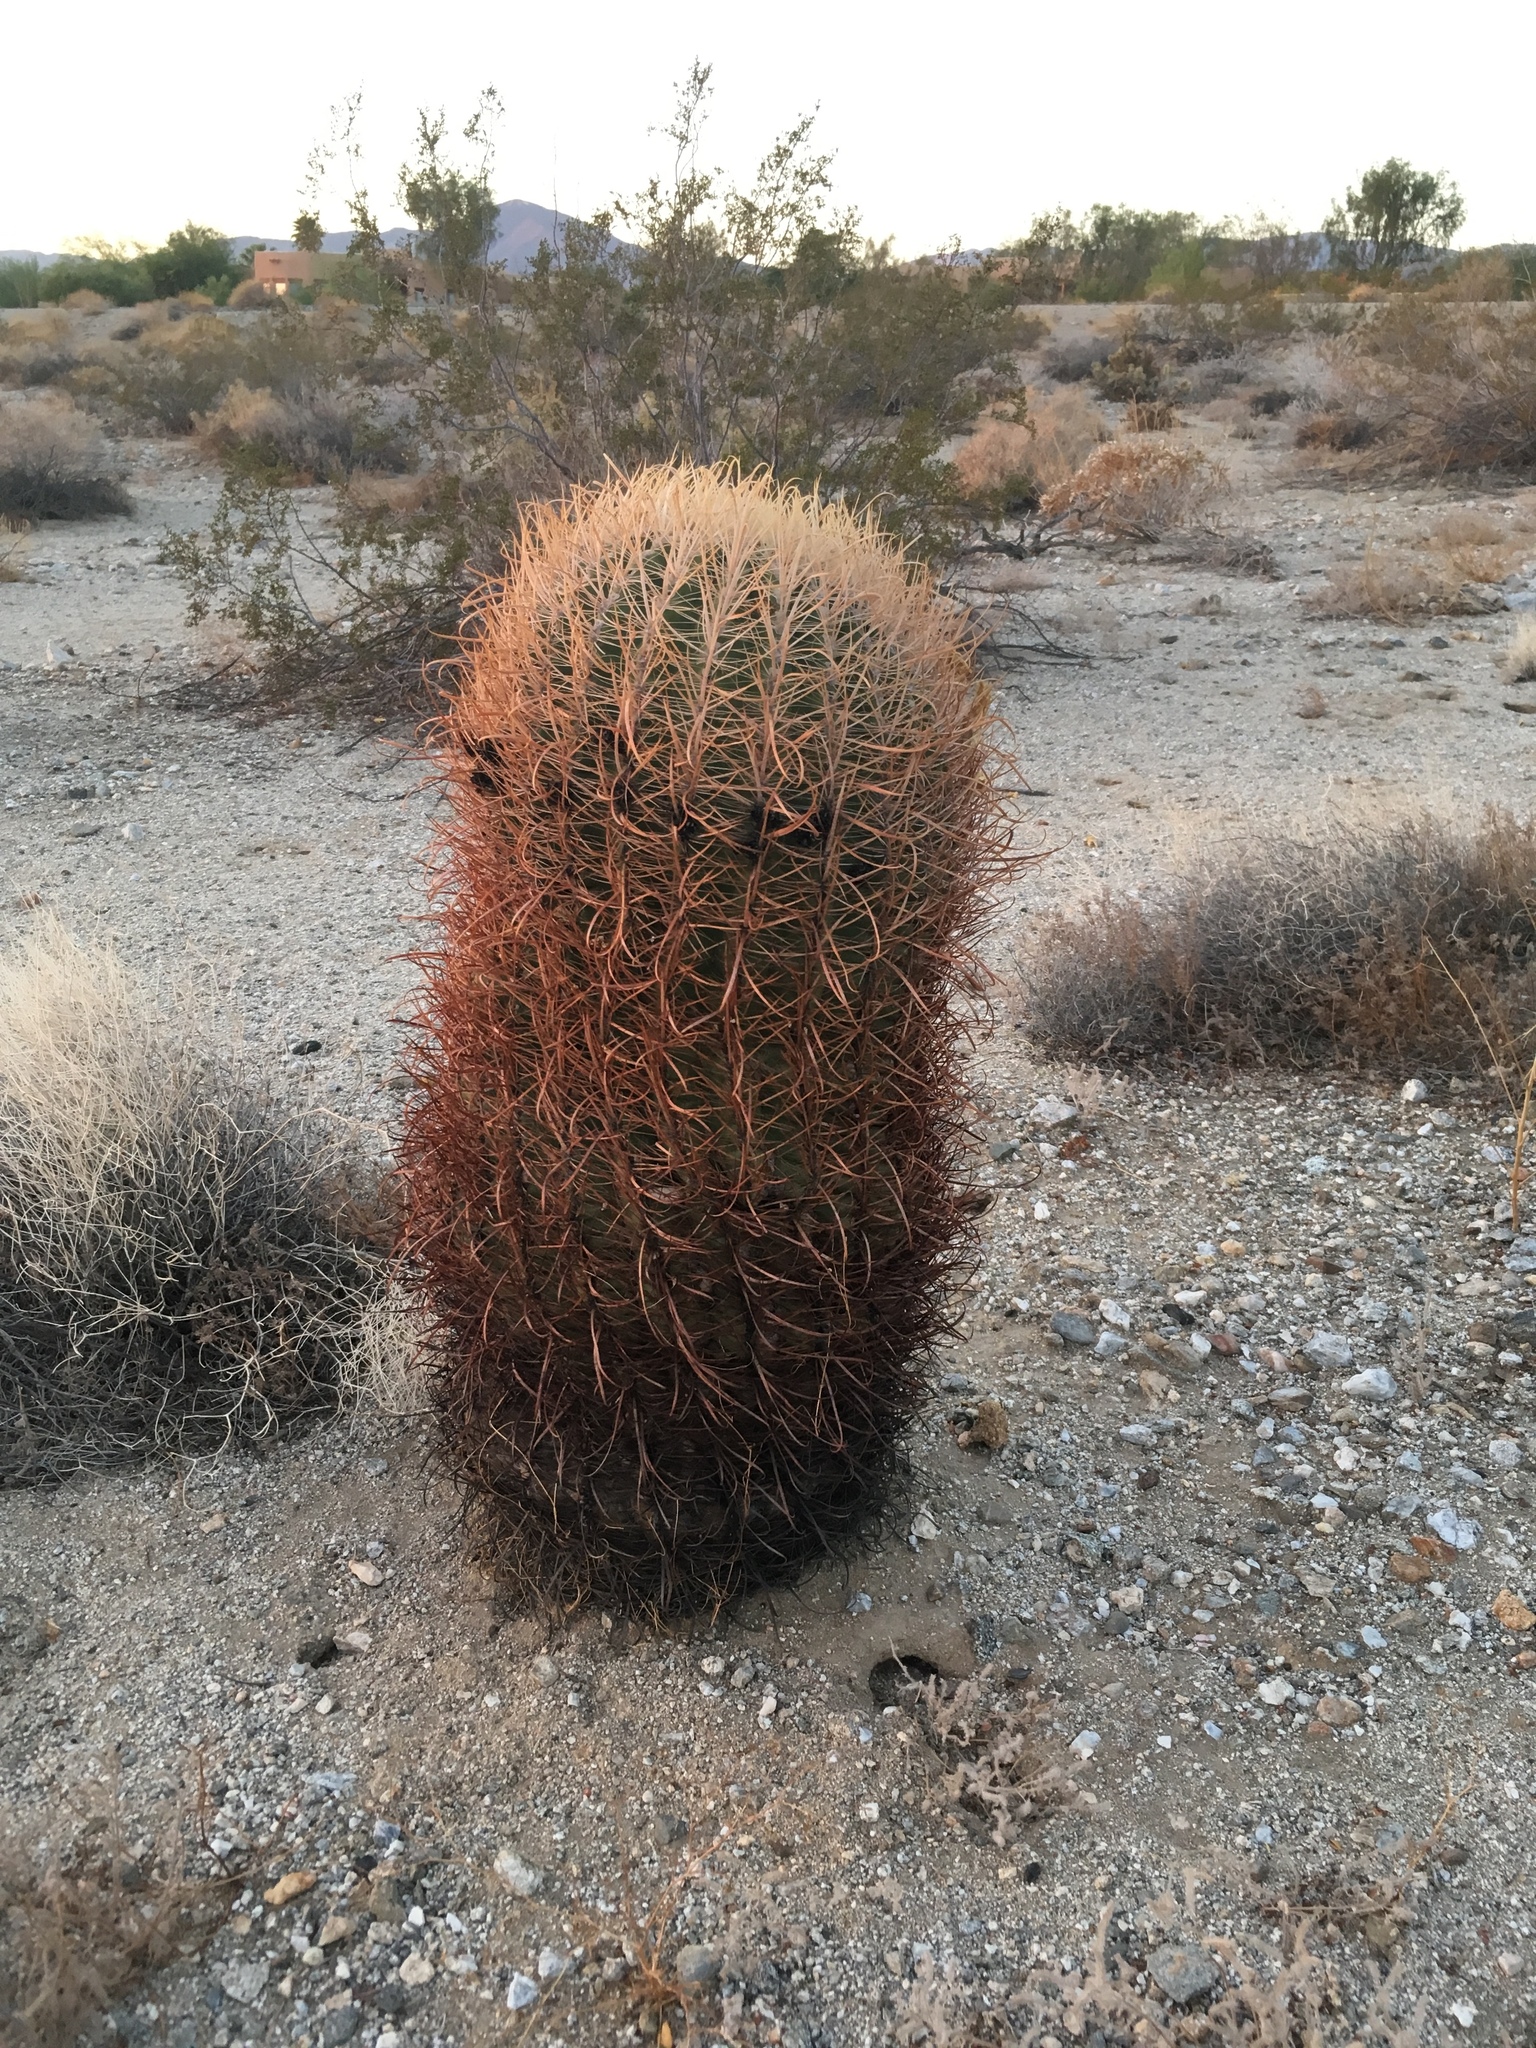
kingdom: Plantae
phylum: Tracheophyta
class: Magnoliopsida
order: Caryophyllales
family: Cactaceae
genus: Ferocactus
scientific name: Ferocactus cylindraceus
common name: California barrel cactus
